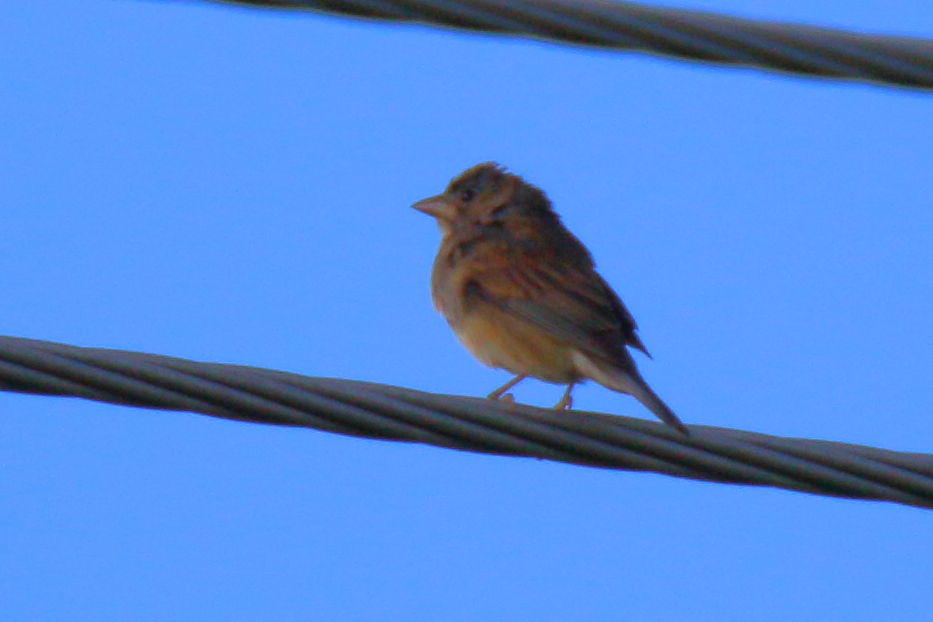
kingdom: Animalia
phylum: Chordata
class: Aves
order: Passeriformes
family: Turdidae
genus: Sialia
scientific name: Sialia sialis
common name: Eastern bluebird
